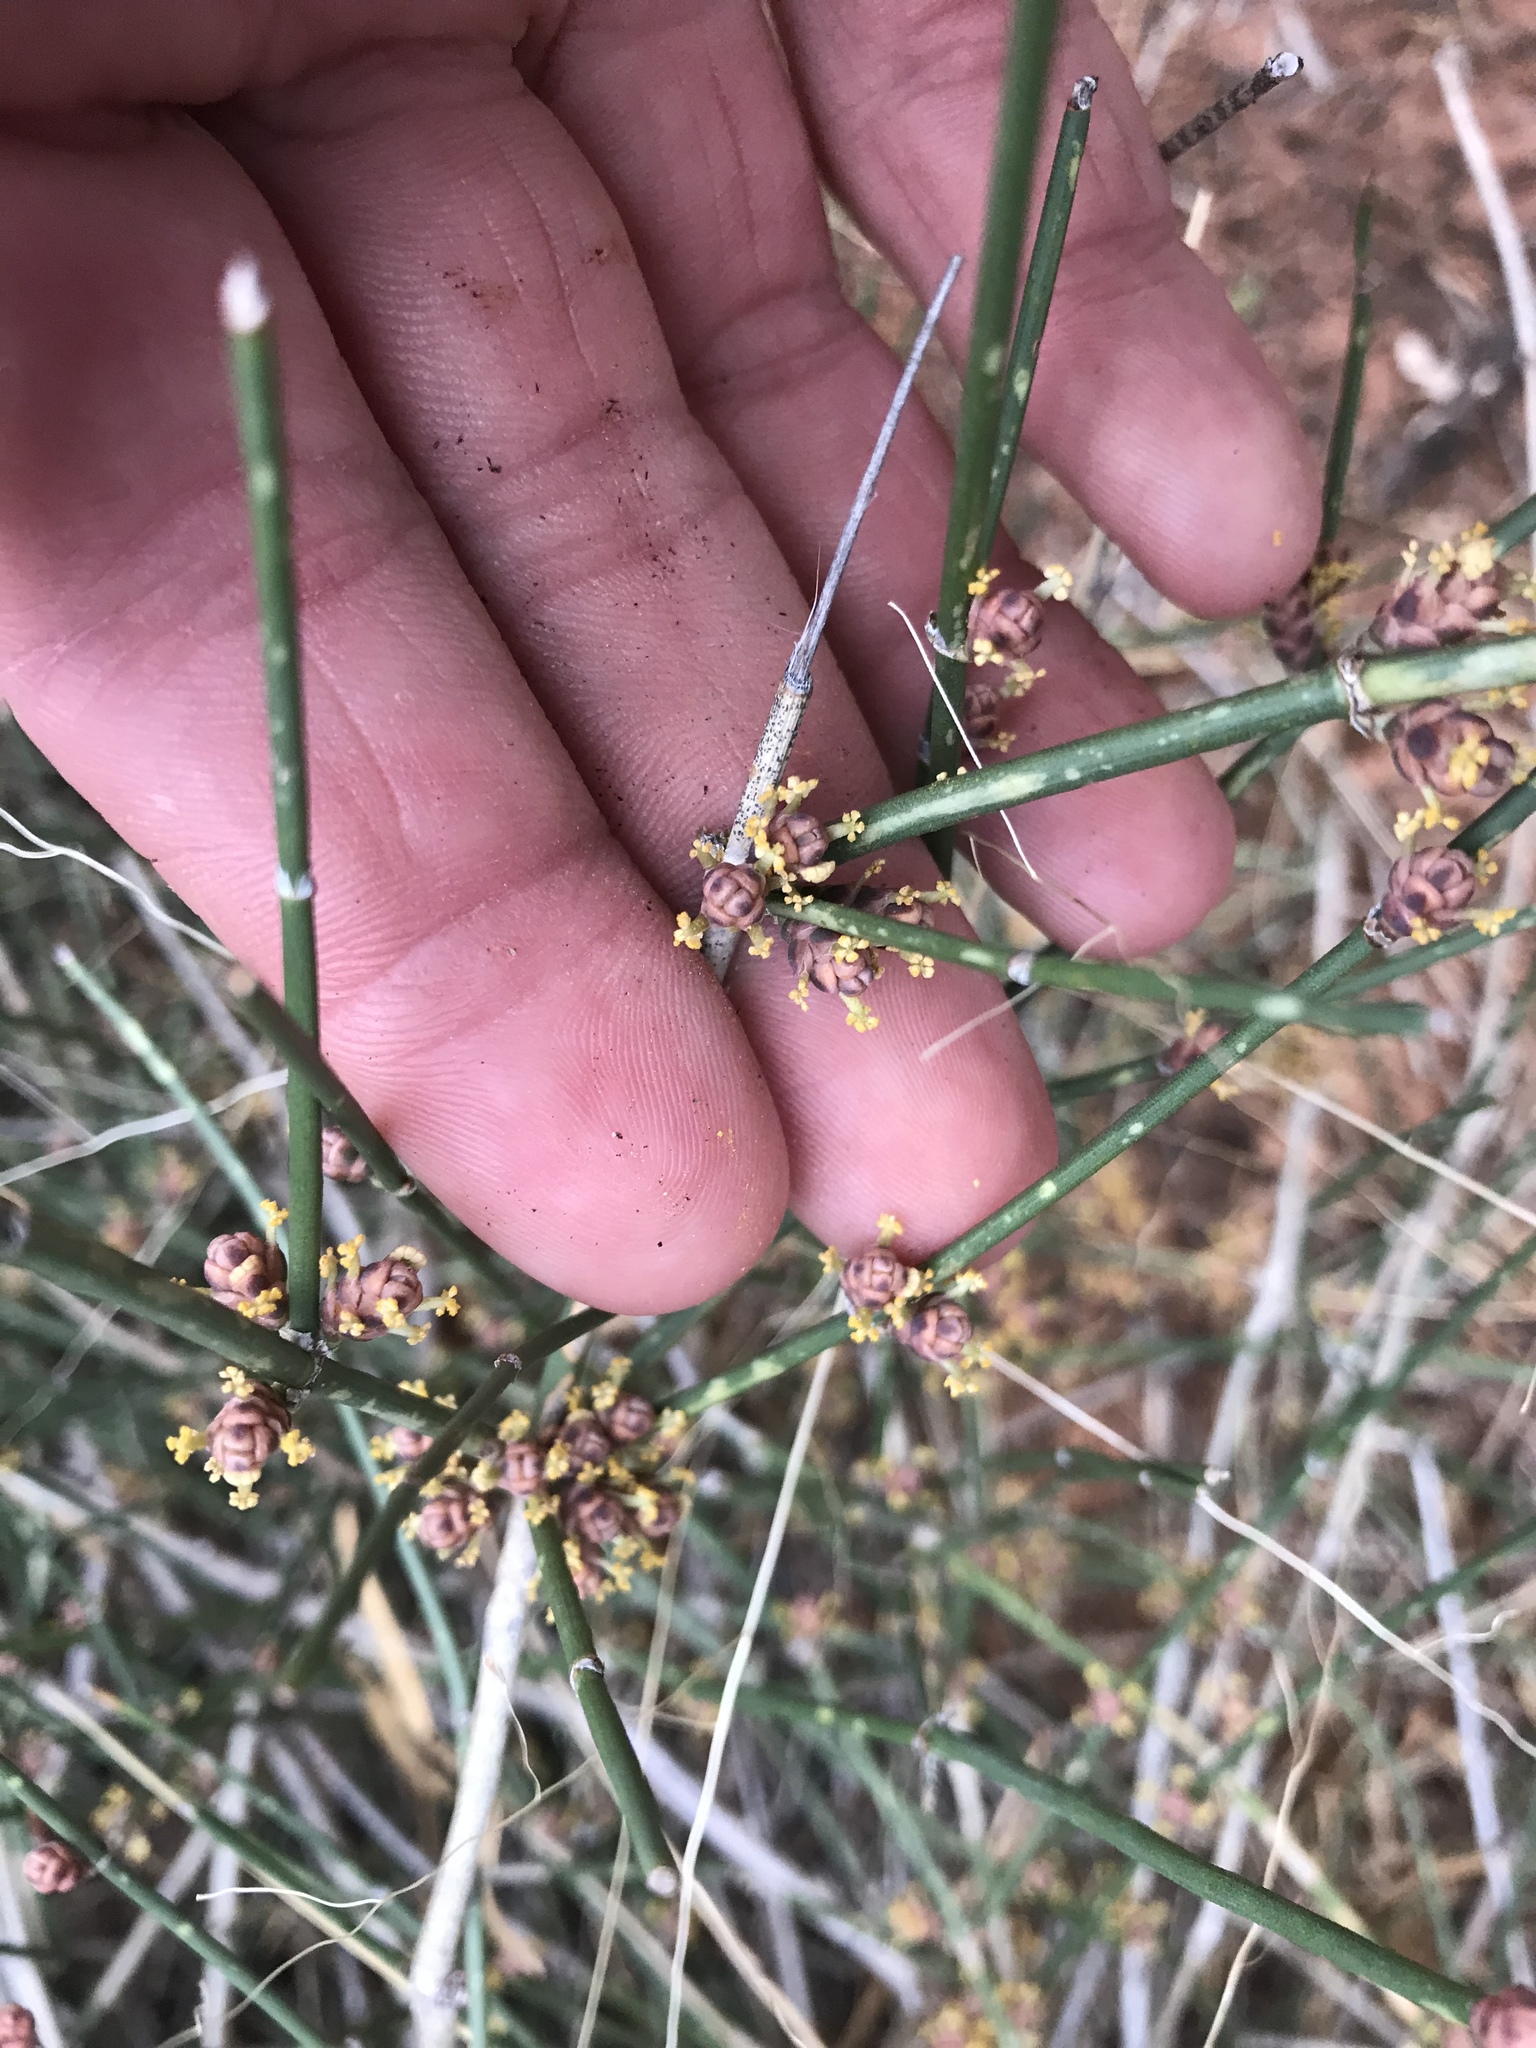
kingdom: Plantae
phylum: Tracheophyta
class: Gnetopsida
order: Ephedrales
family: Ephedraceae
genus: Ephedra
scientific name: Ephedra antisyphilitica
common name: Clipweed
